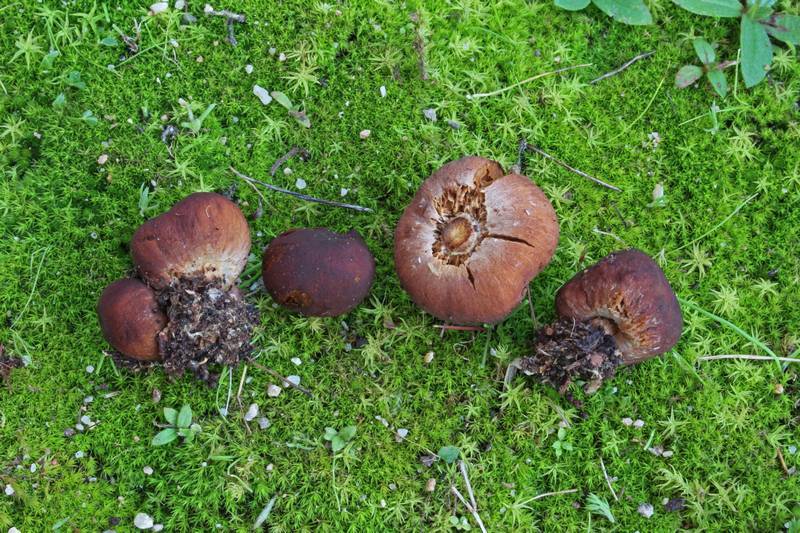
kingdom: Fungi
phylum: Basidiomycota
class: Agaricomycetes
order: Agaricales
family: Bolbitiaceae
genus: Setchelliogaster
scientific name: Setchelliogaster tenuipes
